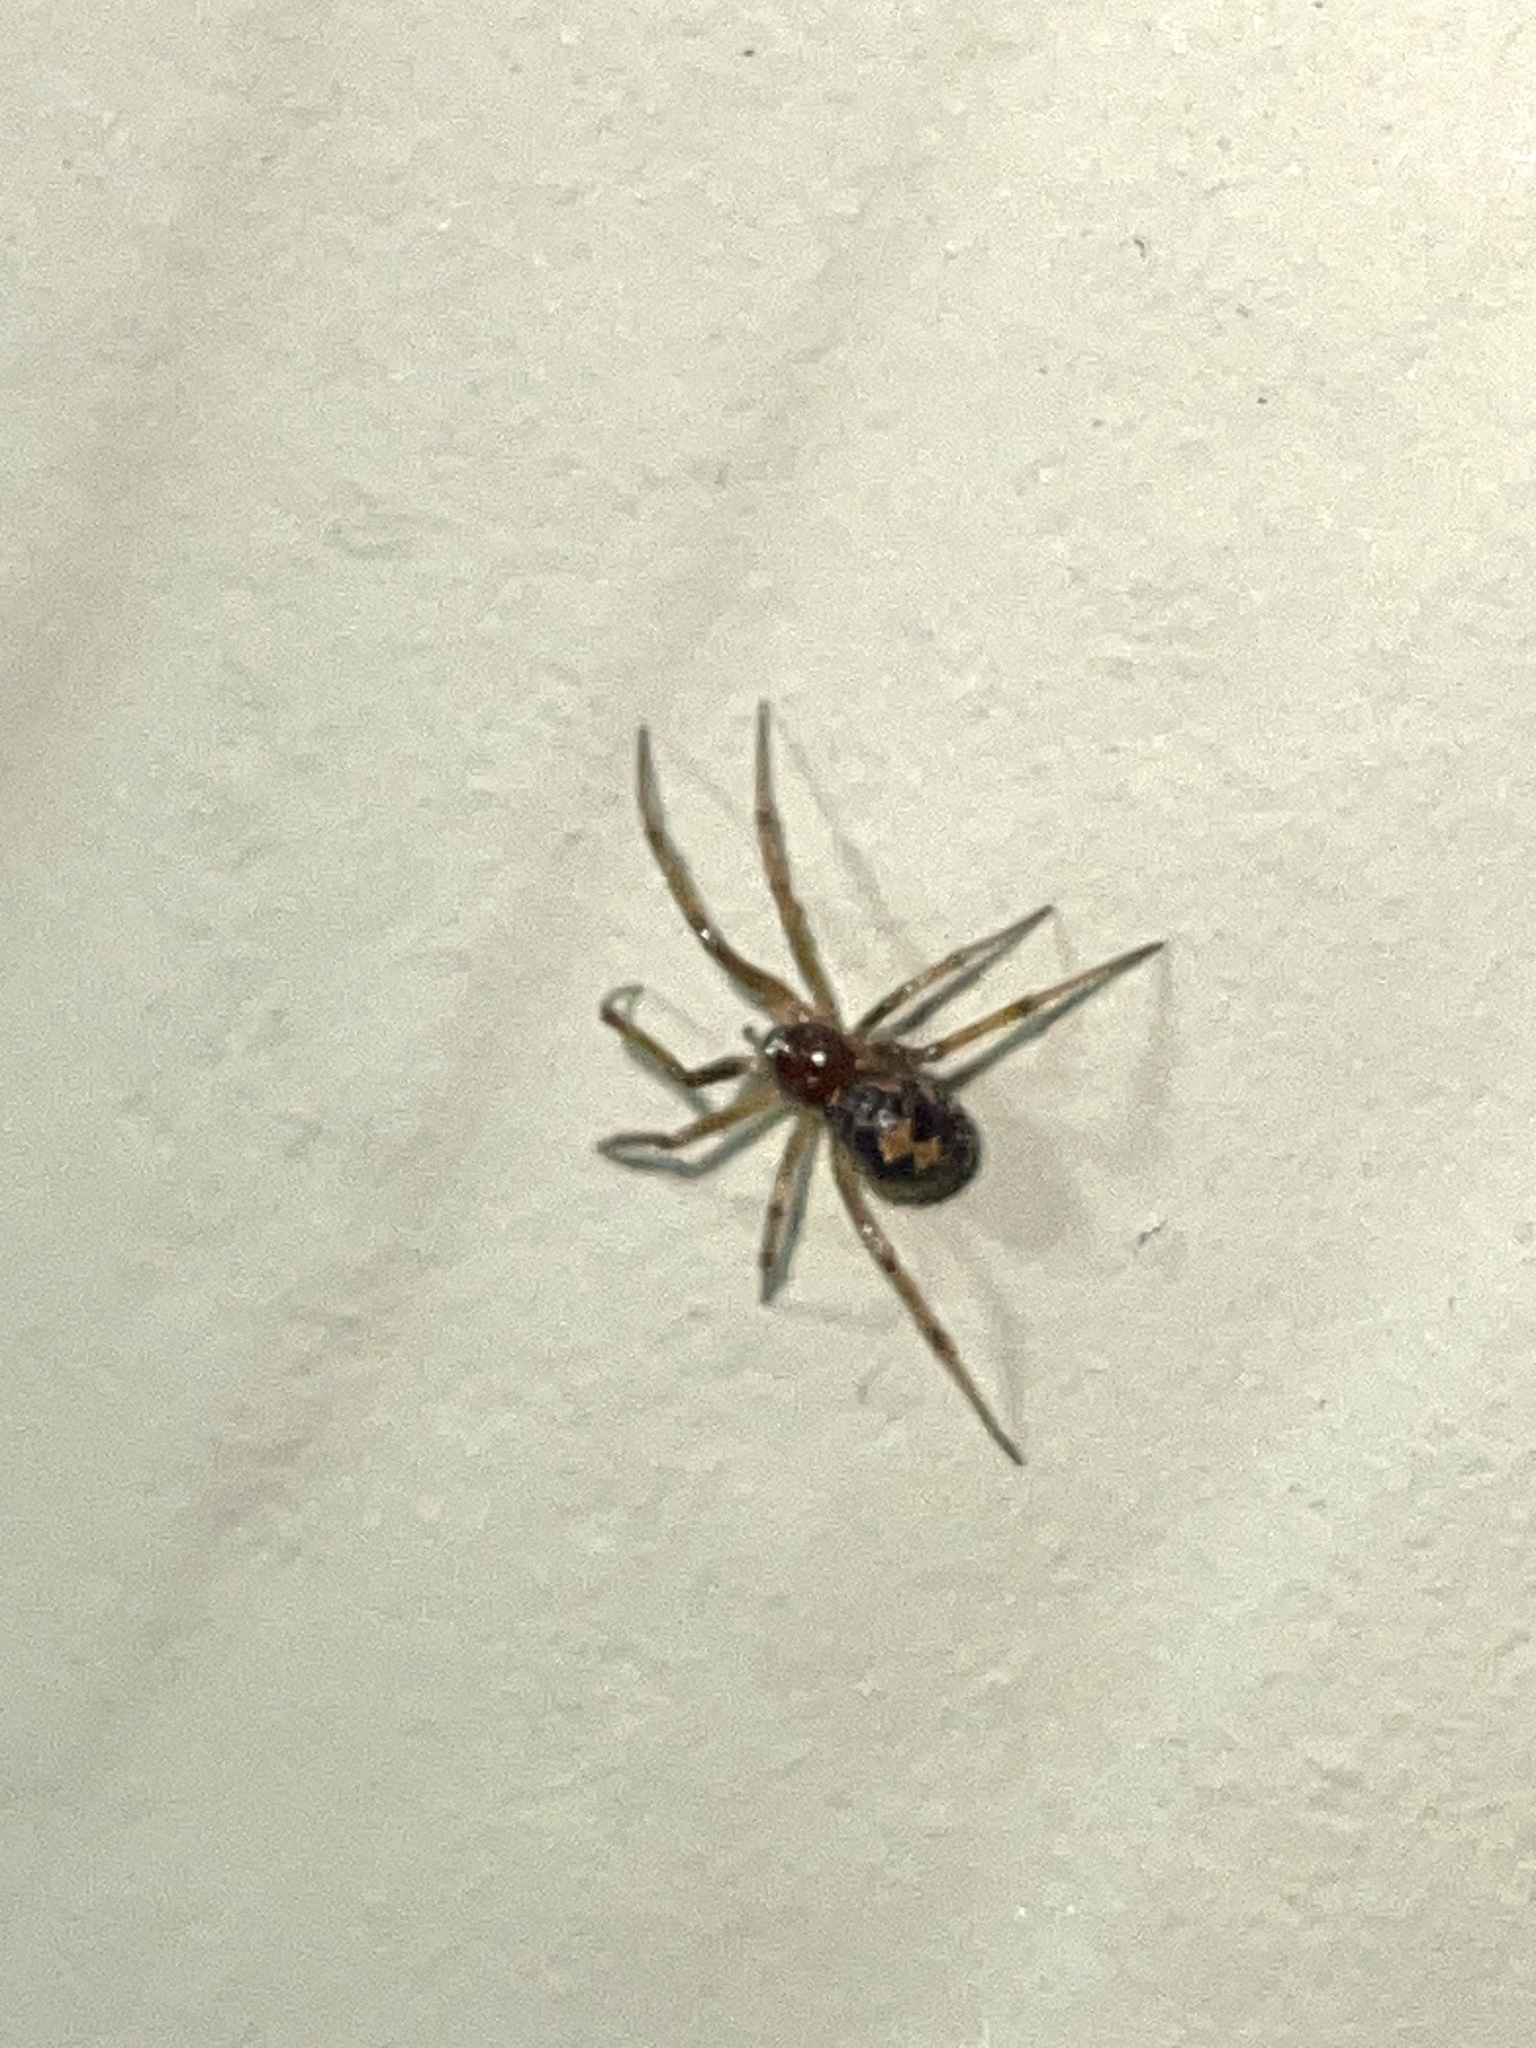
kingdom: Animalia
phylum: Arthropoda
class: Arachnida
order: Araneae
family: Theridiidae
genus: Steatoda
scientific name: Steatoda triangulosa
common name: Triangulate bud spider
